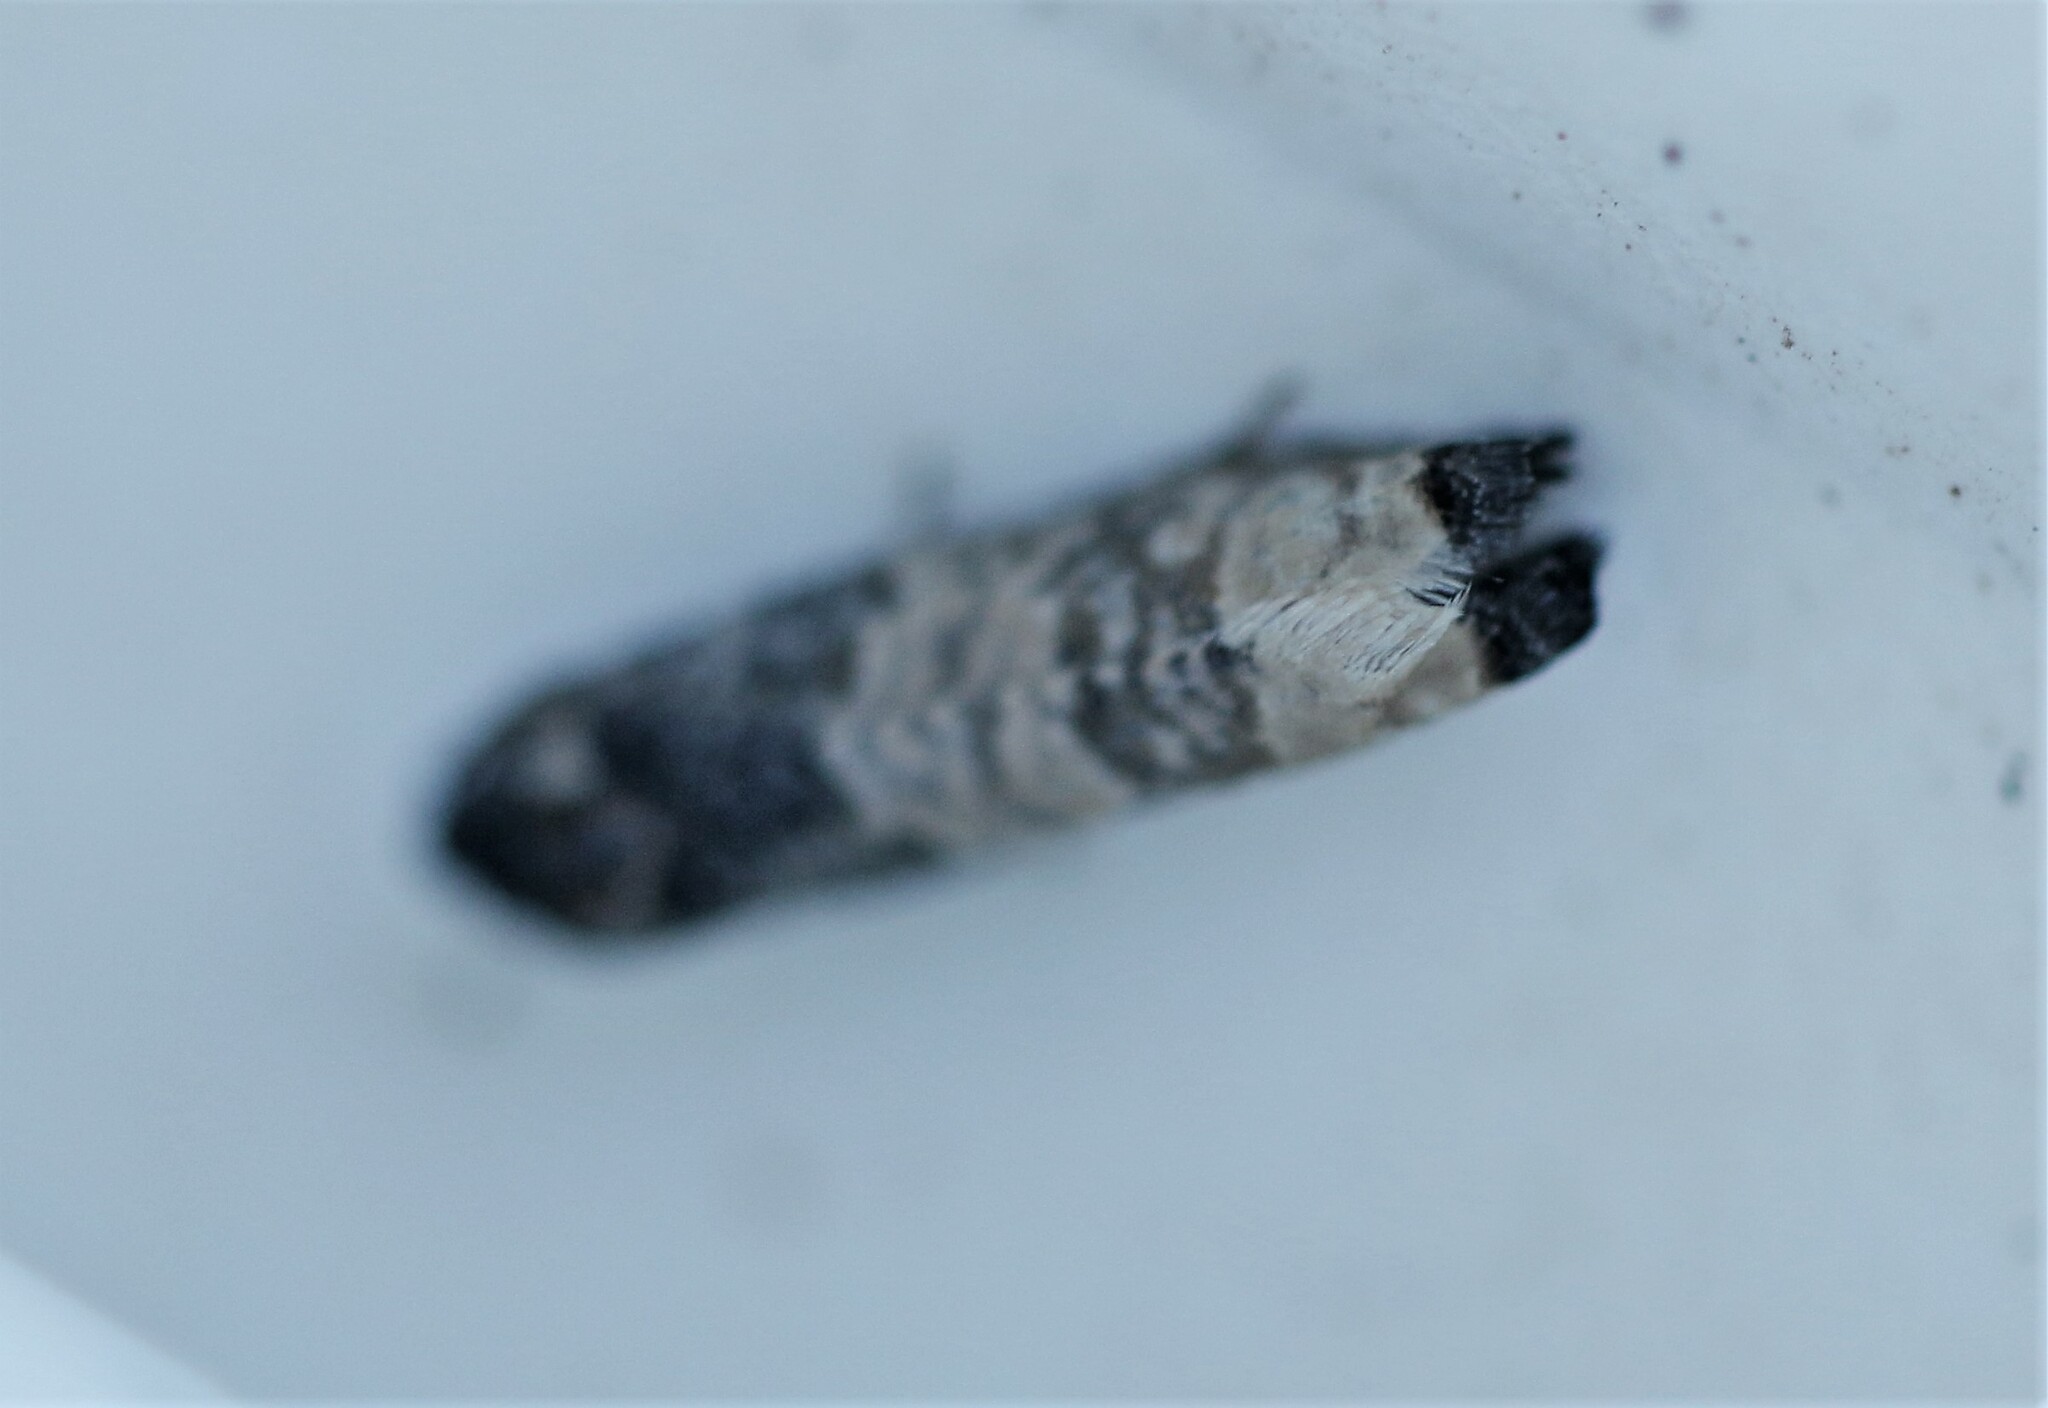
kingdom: Animalia
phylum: Arthropoda
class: Insecta
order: Lepidoptera
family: Tortricidae
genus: Epiblema
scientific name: Epiblema obfuscana
